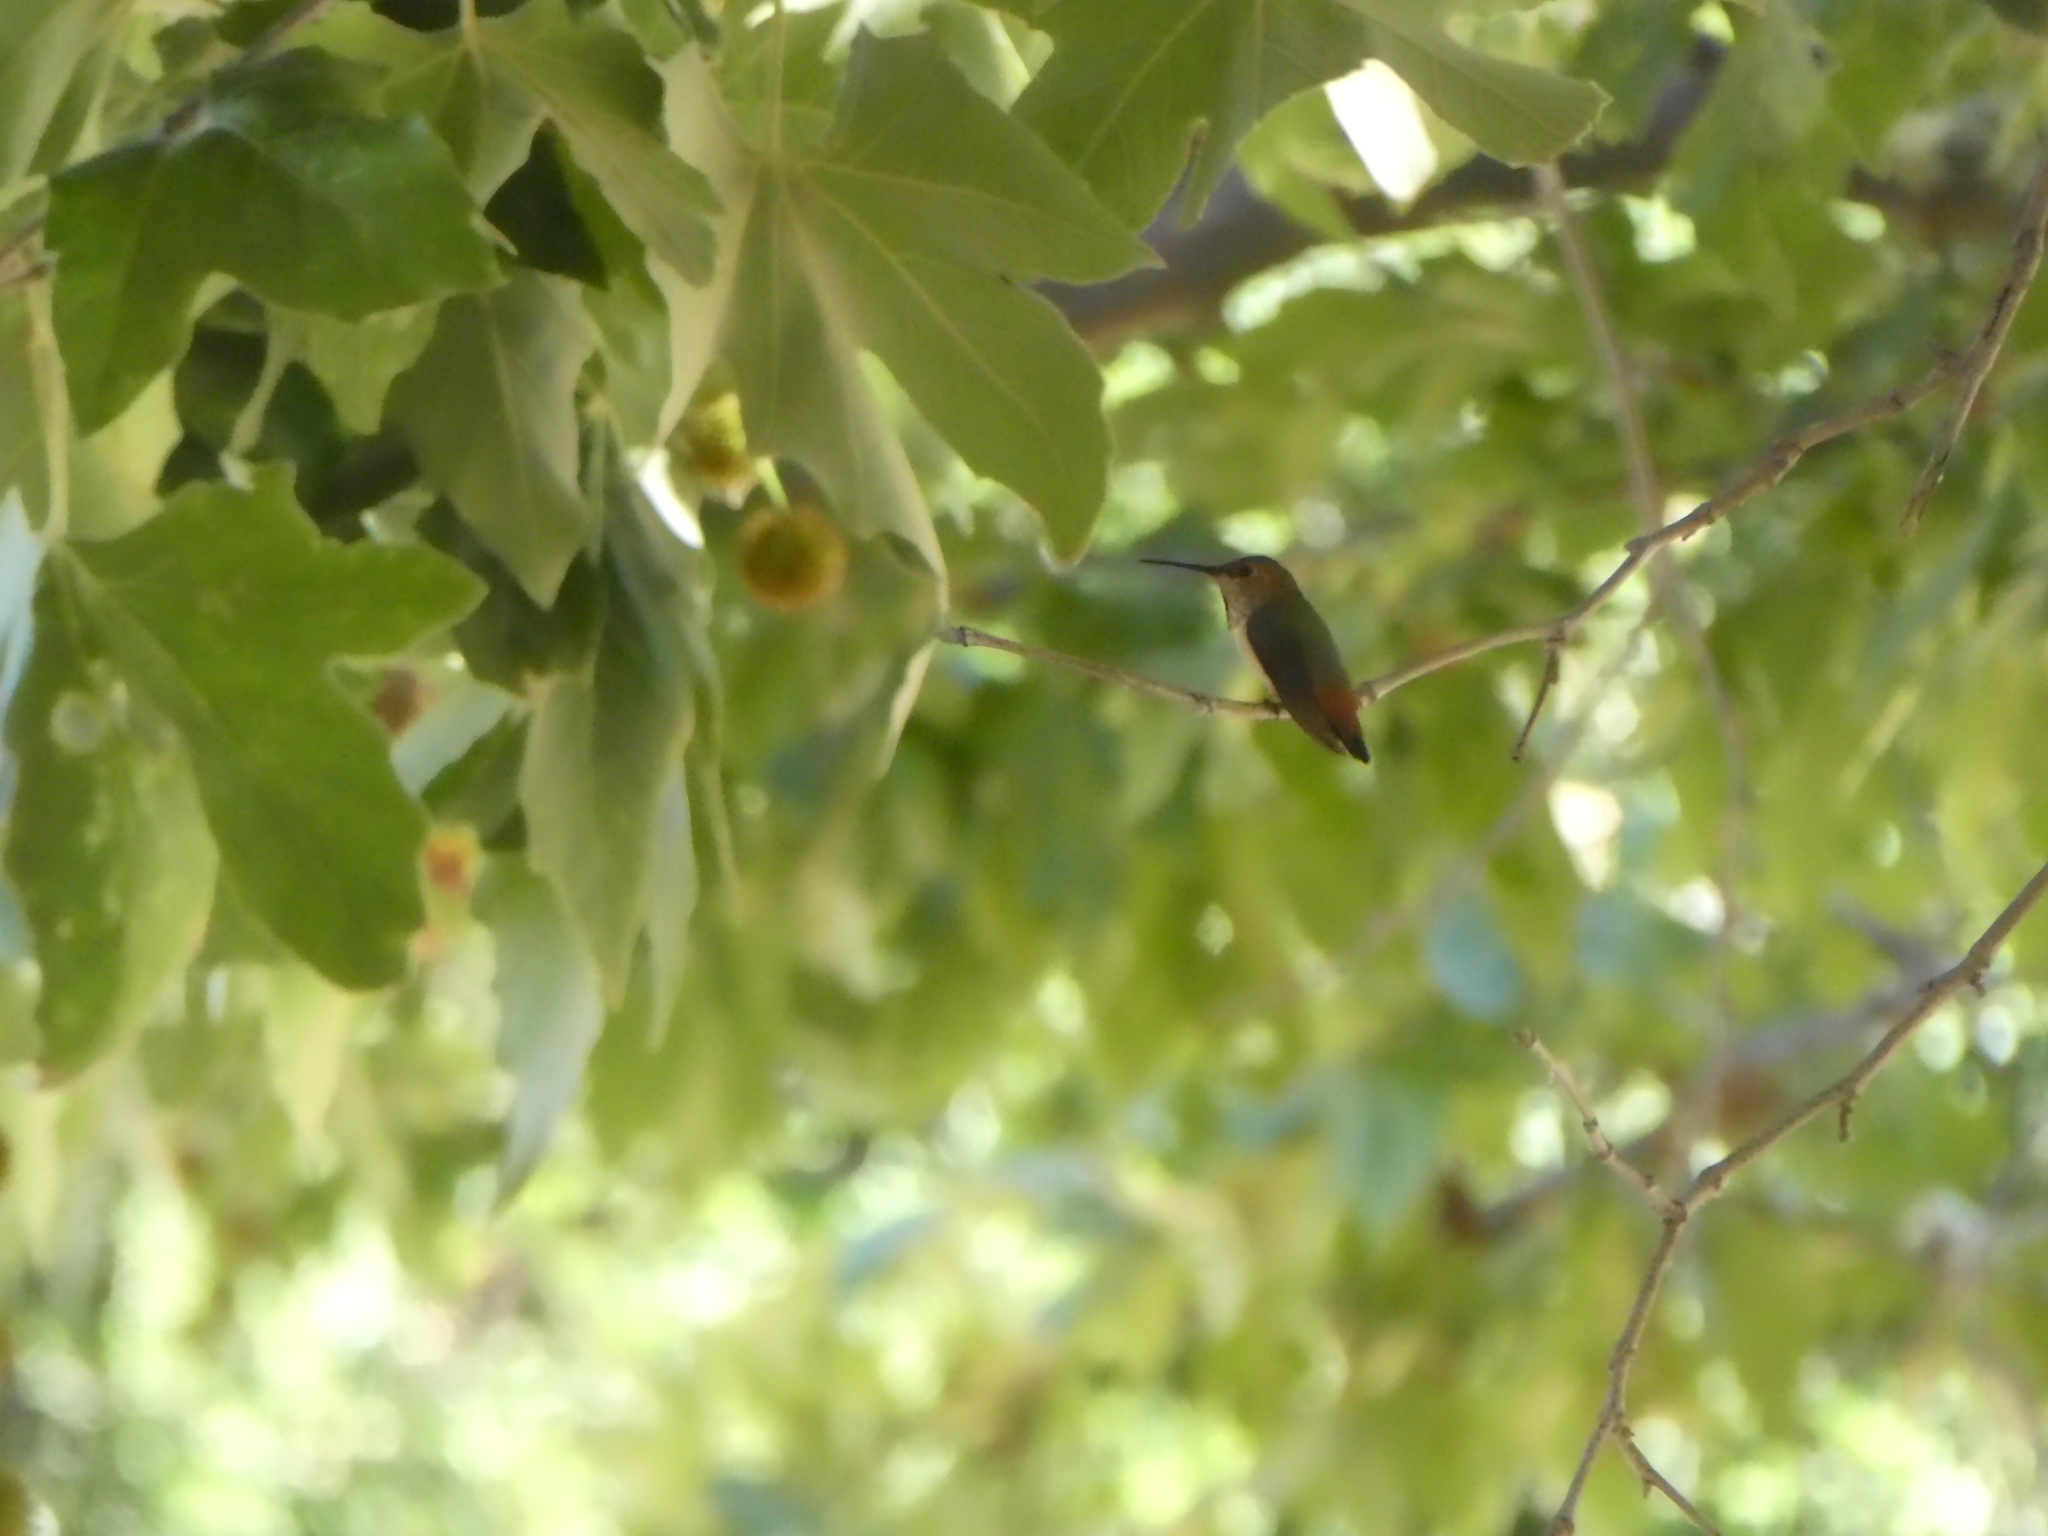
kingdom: Animalia
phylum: Chordata
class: Aves
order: Apodiformes
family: Trochilidae
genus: Selasphorus
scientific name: Selasphorus
